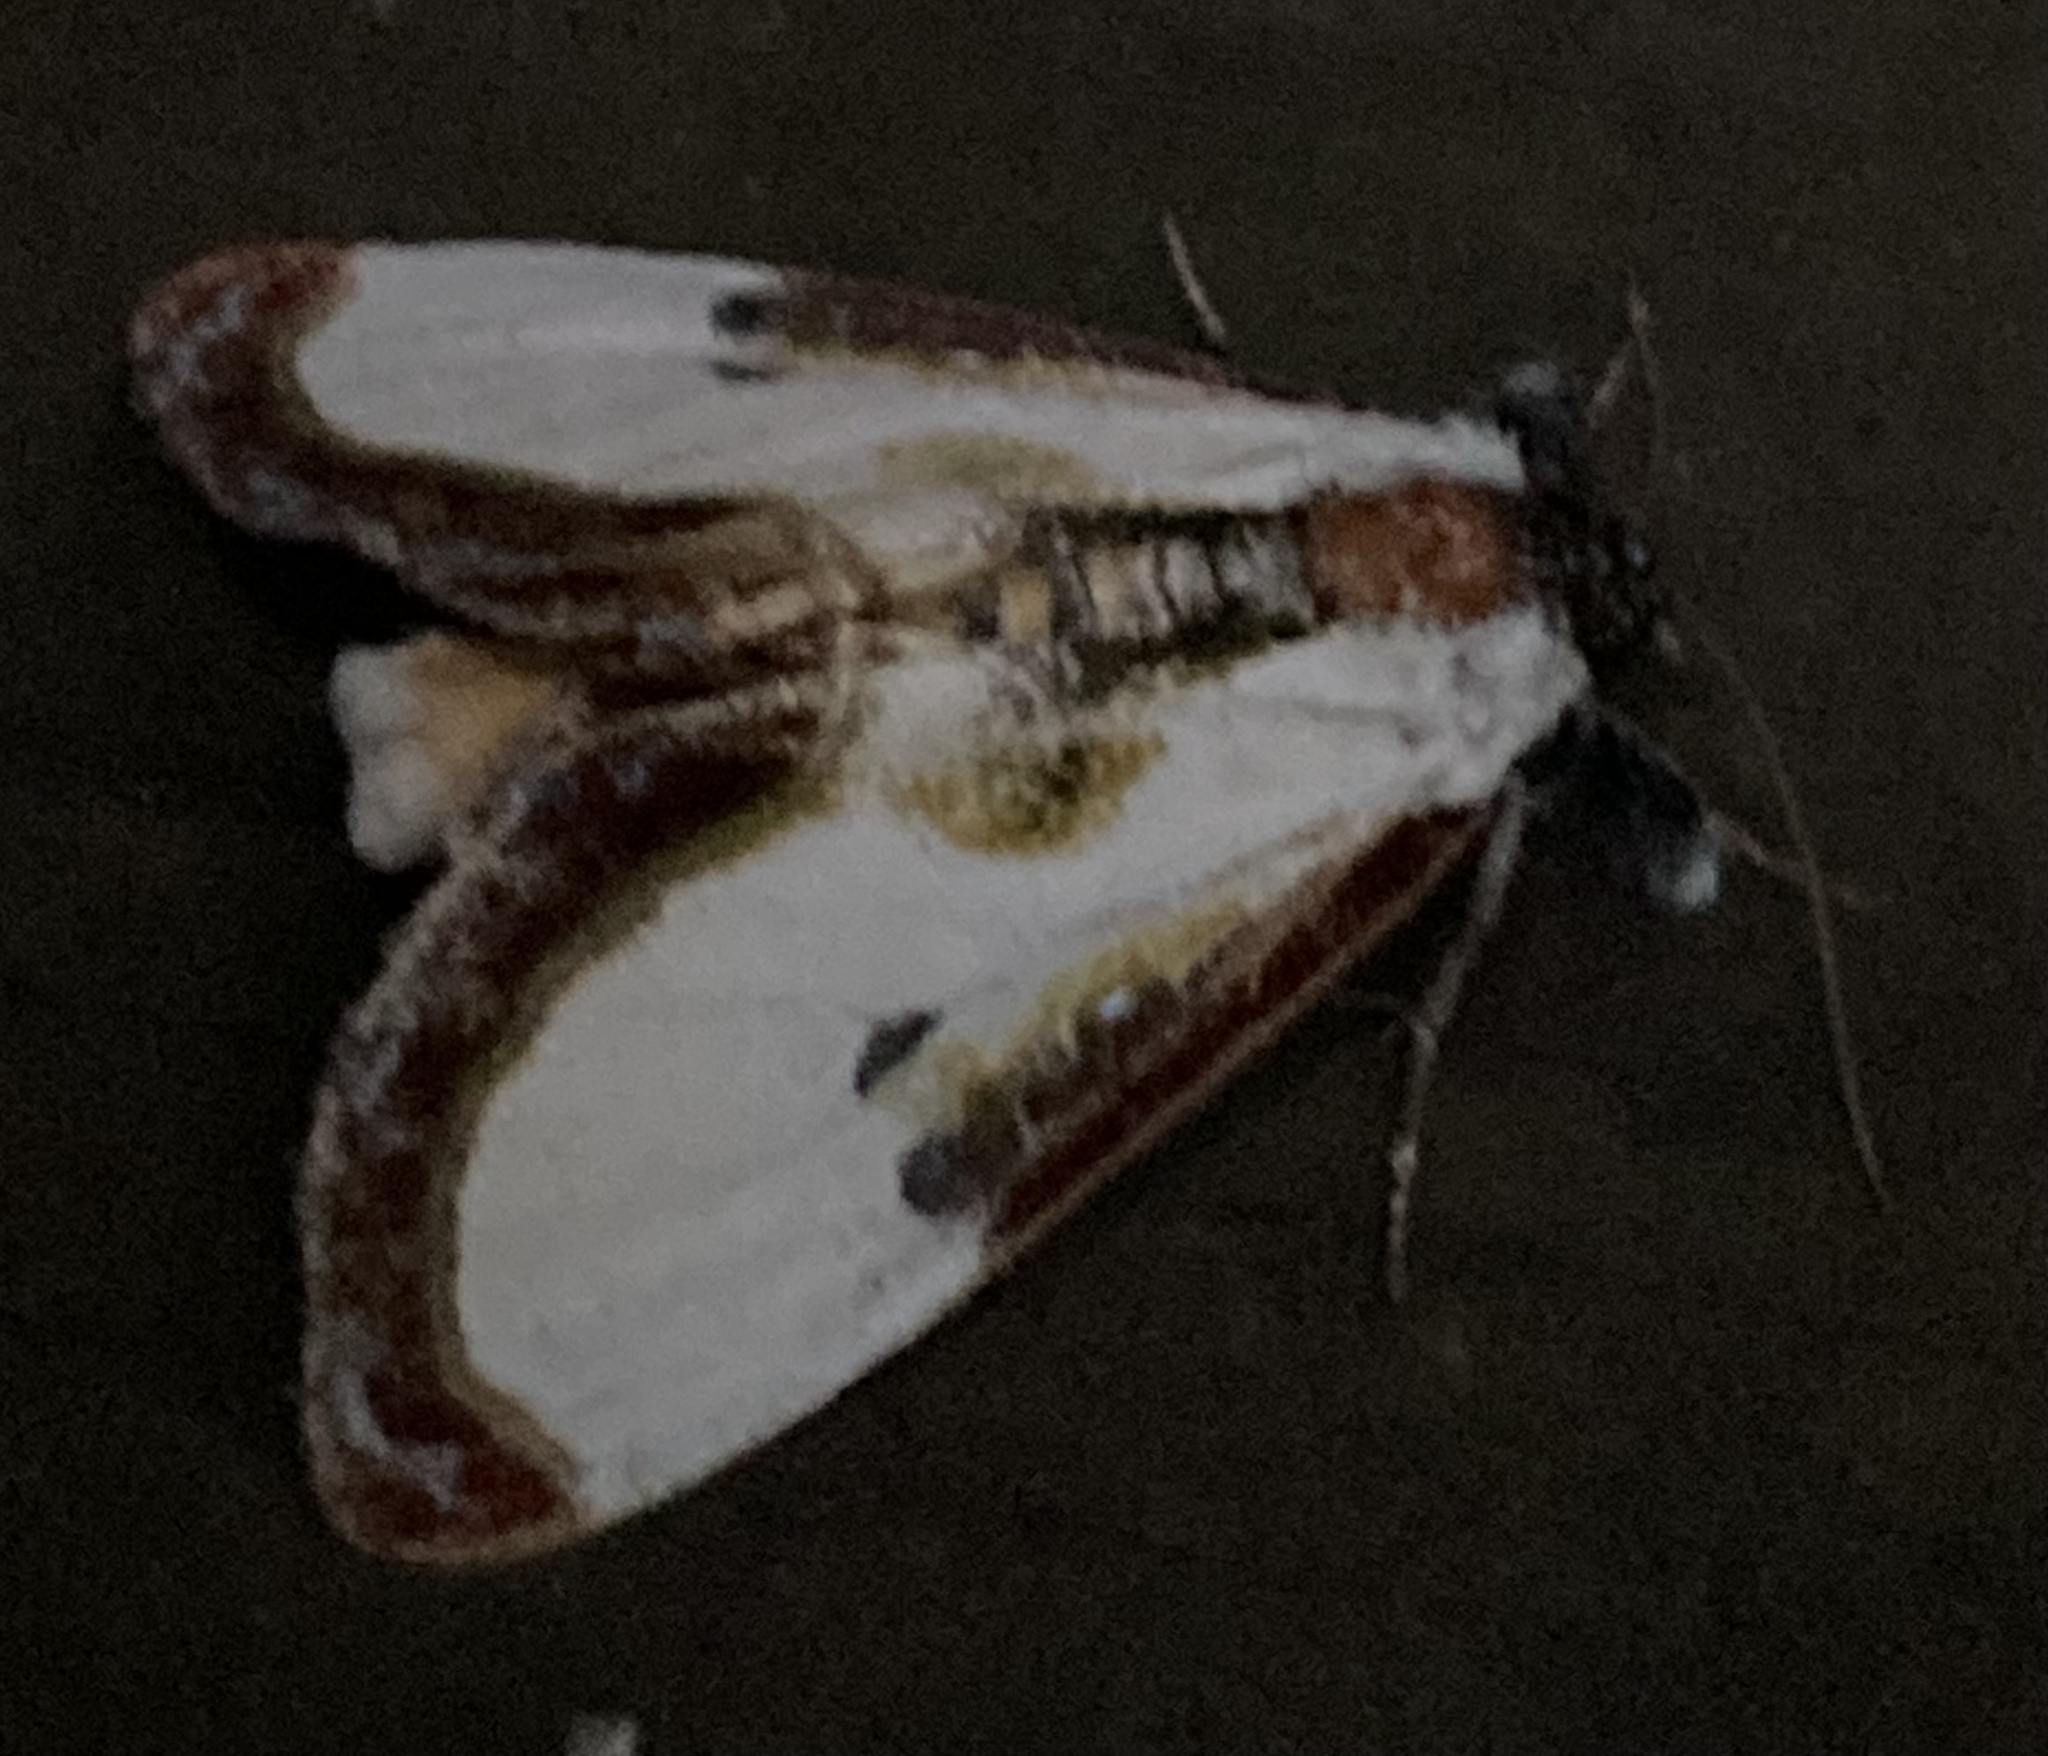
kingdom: Animalia
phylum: Arthropoda
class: Insecta
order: Lepidoptera
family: Noctuidae
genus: Eudryas
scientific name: Eudryas grata
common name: Beautiful wood-nymph
